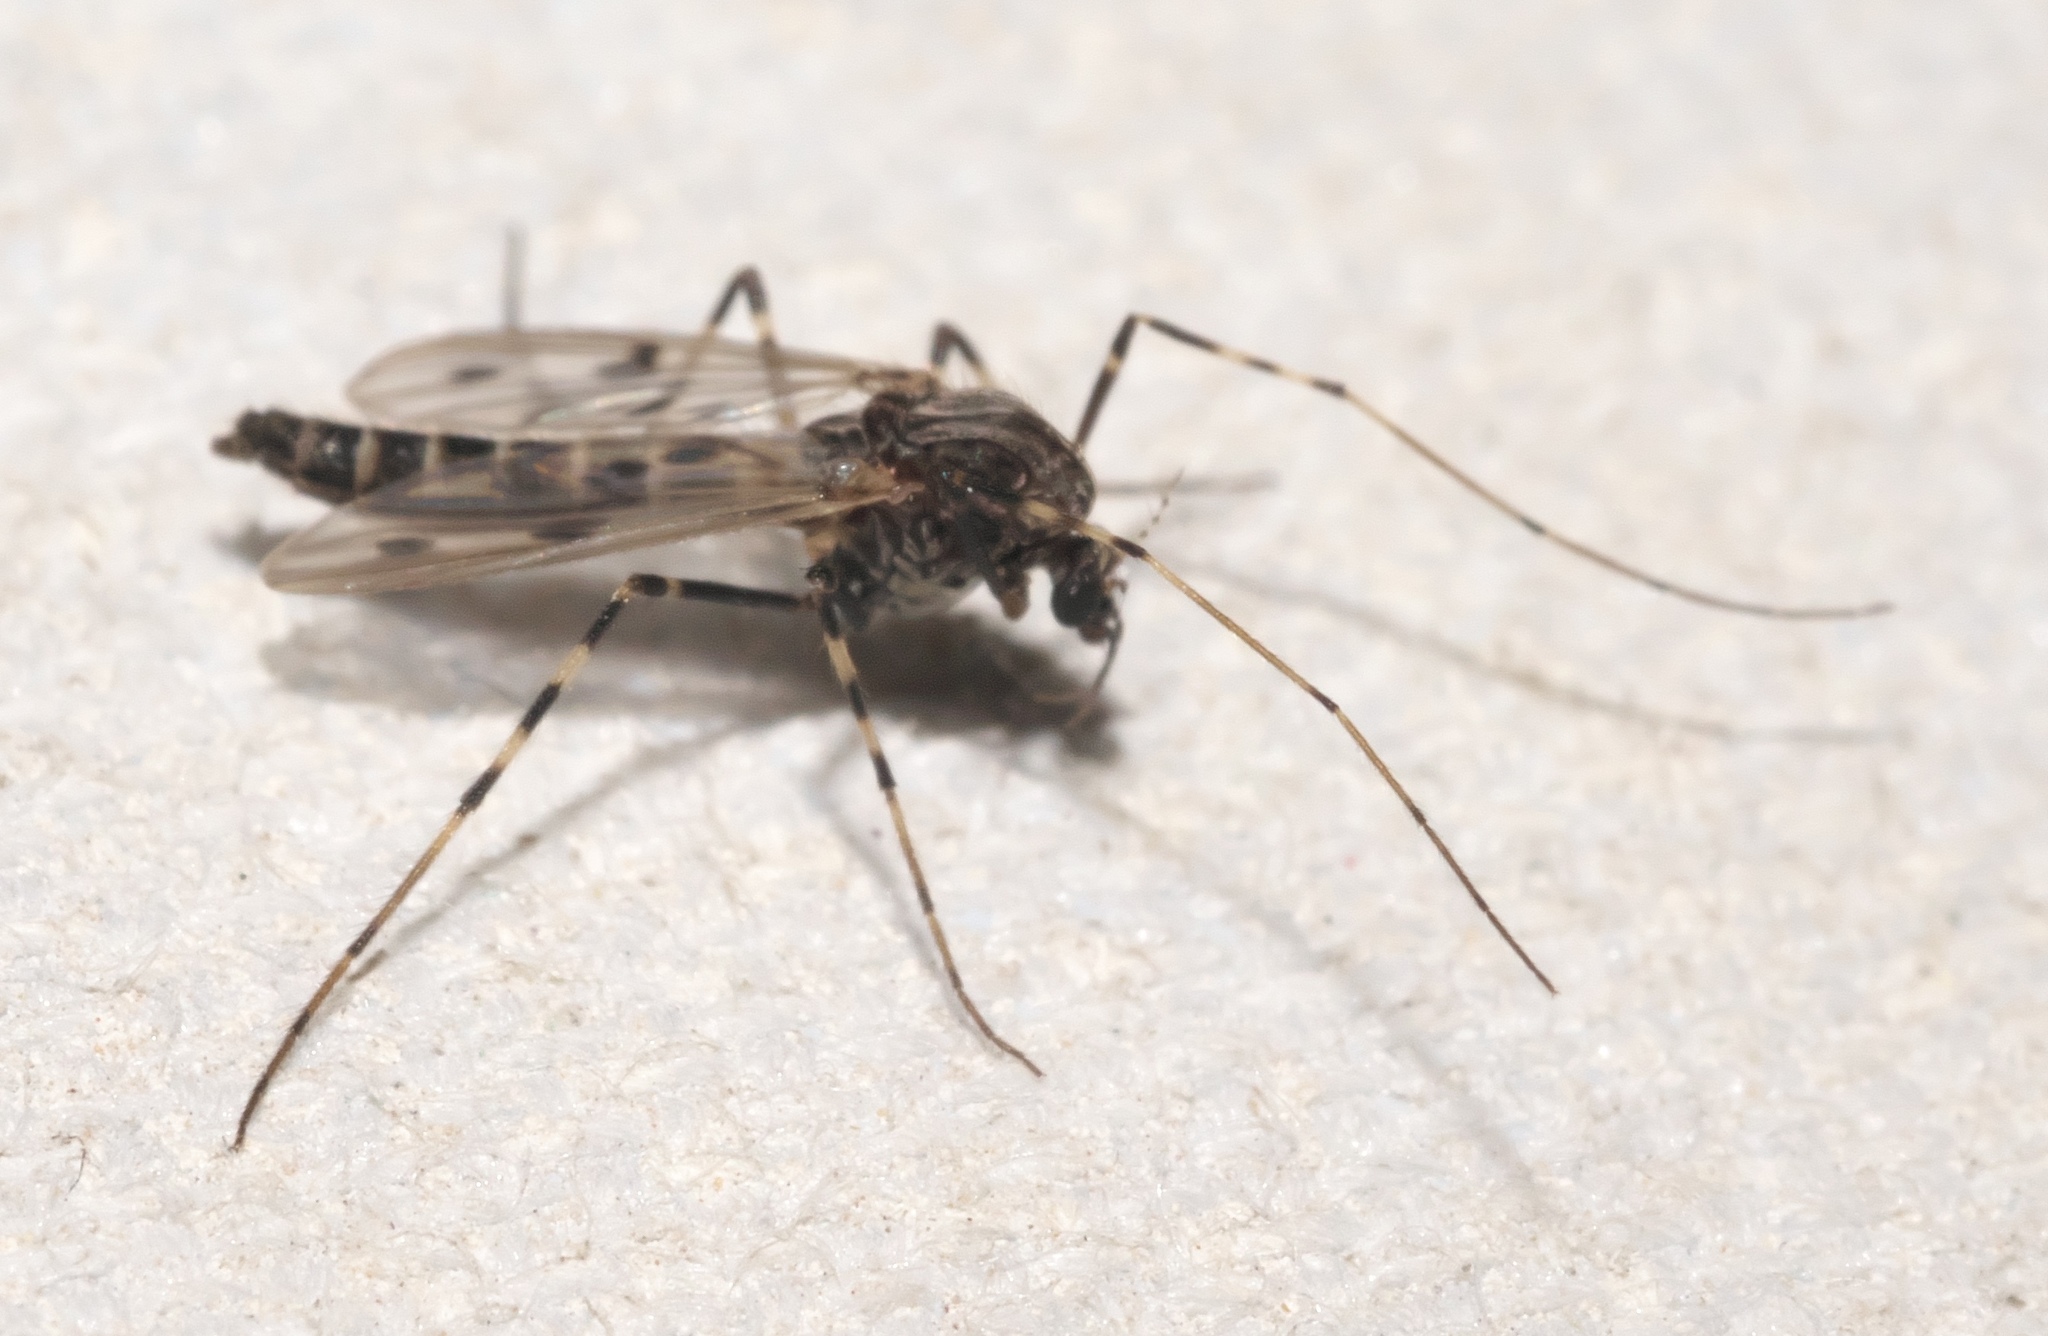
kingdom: Animalia
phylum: Arthropoda
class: Insecta
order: Diptera
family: Chironomidae
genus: Stictochironomus
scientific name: Stictochironomus naevus
